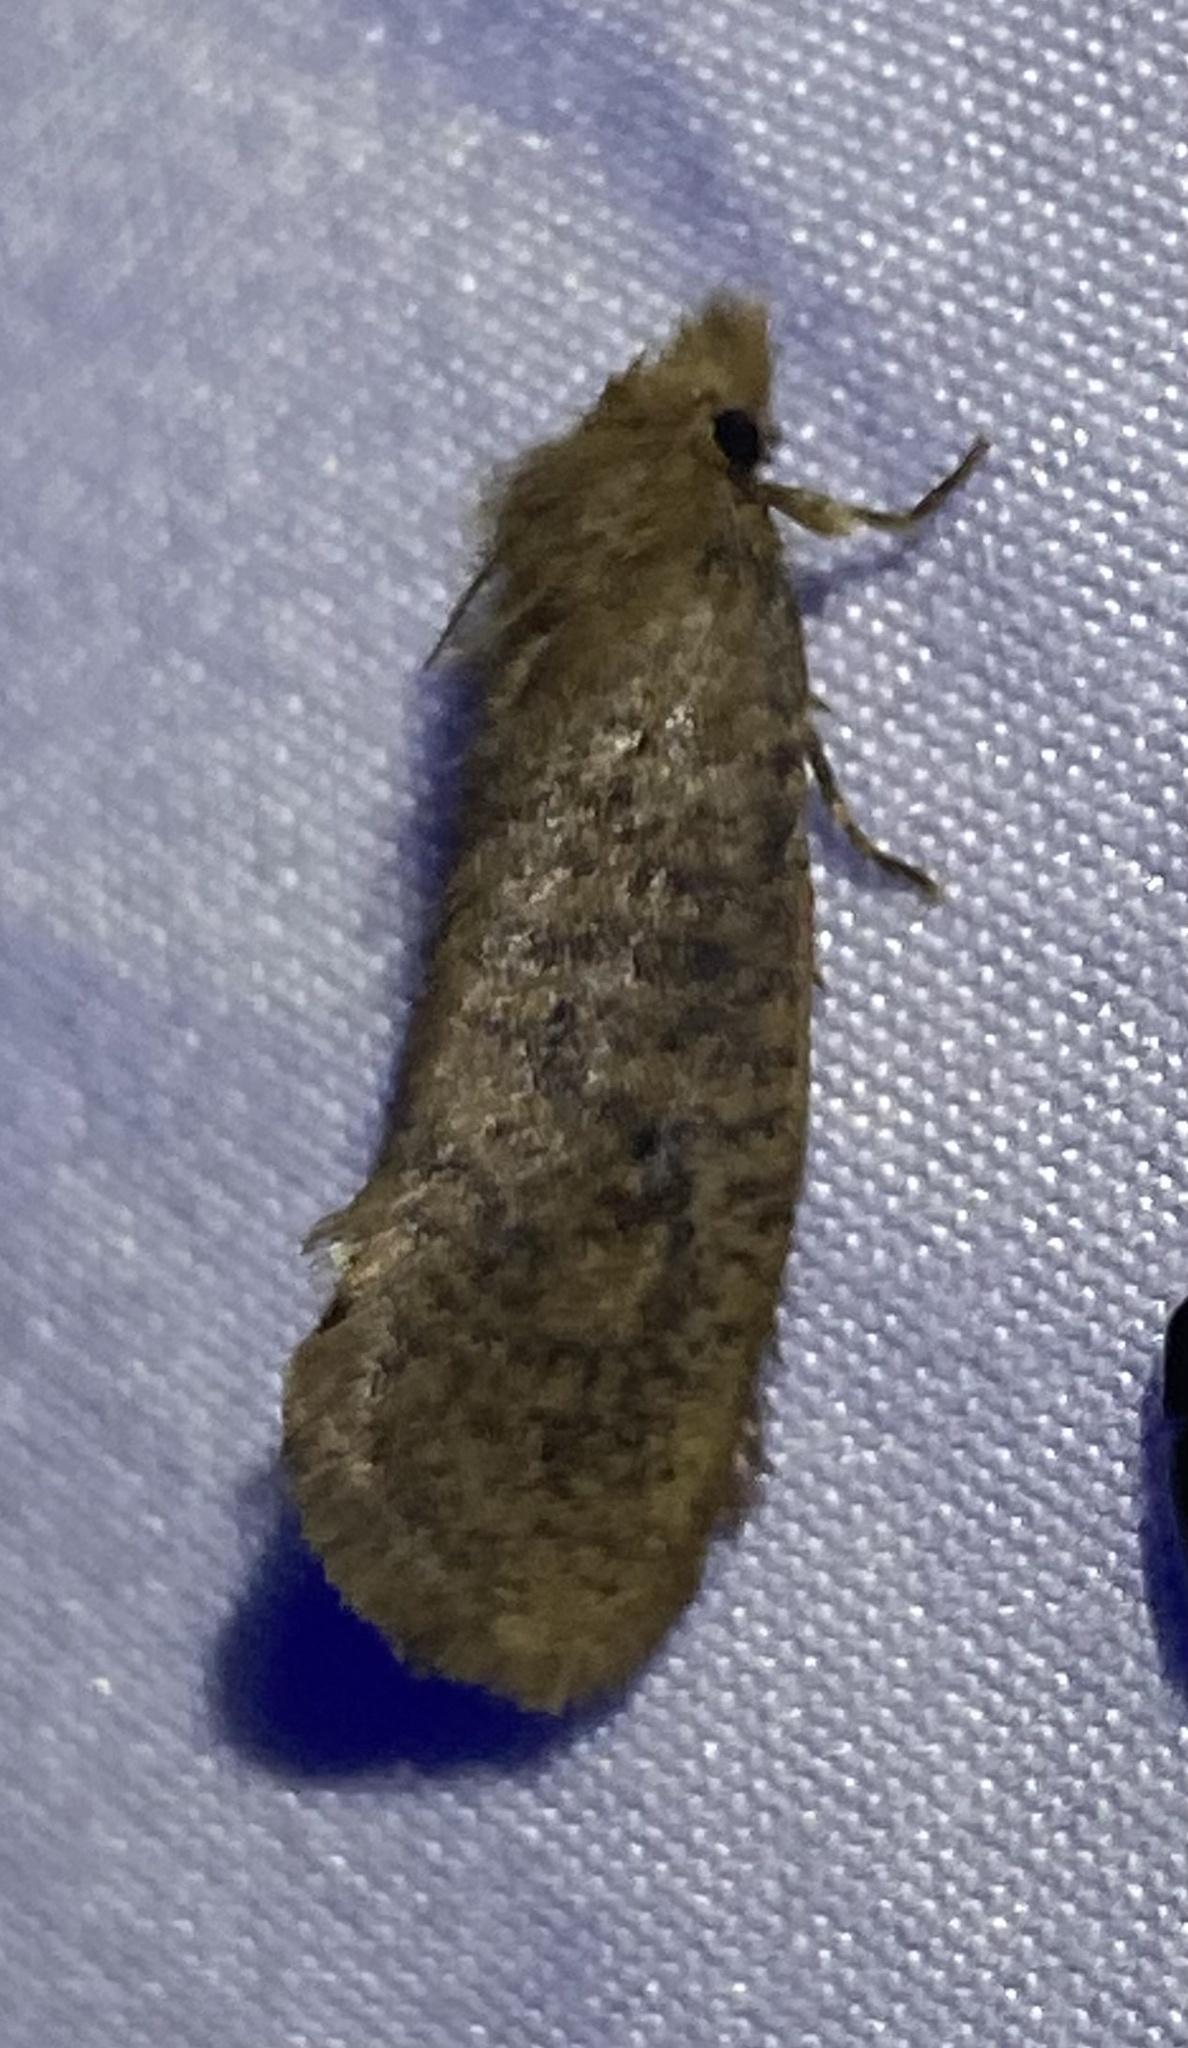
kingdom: Animalia
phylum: Arthropoda
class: Insecta
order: Lepidoptera
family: Tineidae
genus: Acrolophus
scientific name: Acrolophus propinqua
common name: Walsingham's grass tubeworm moth
